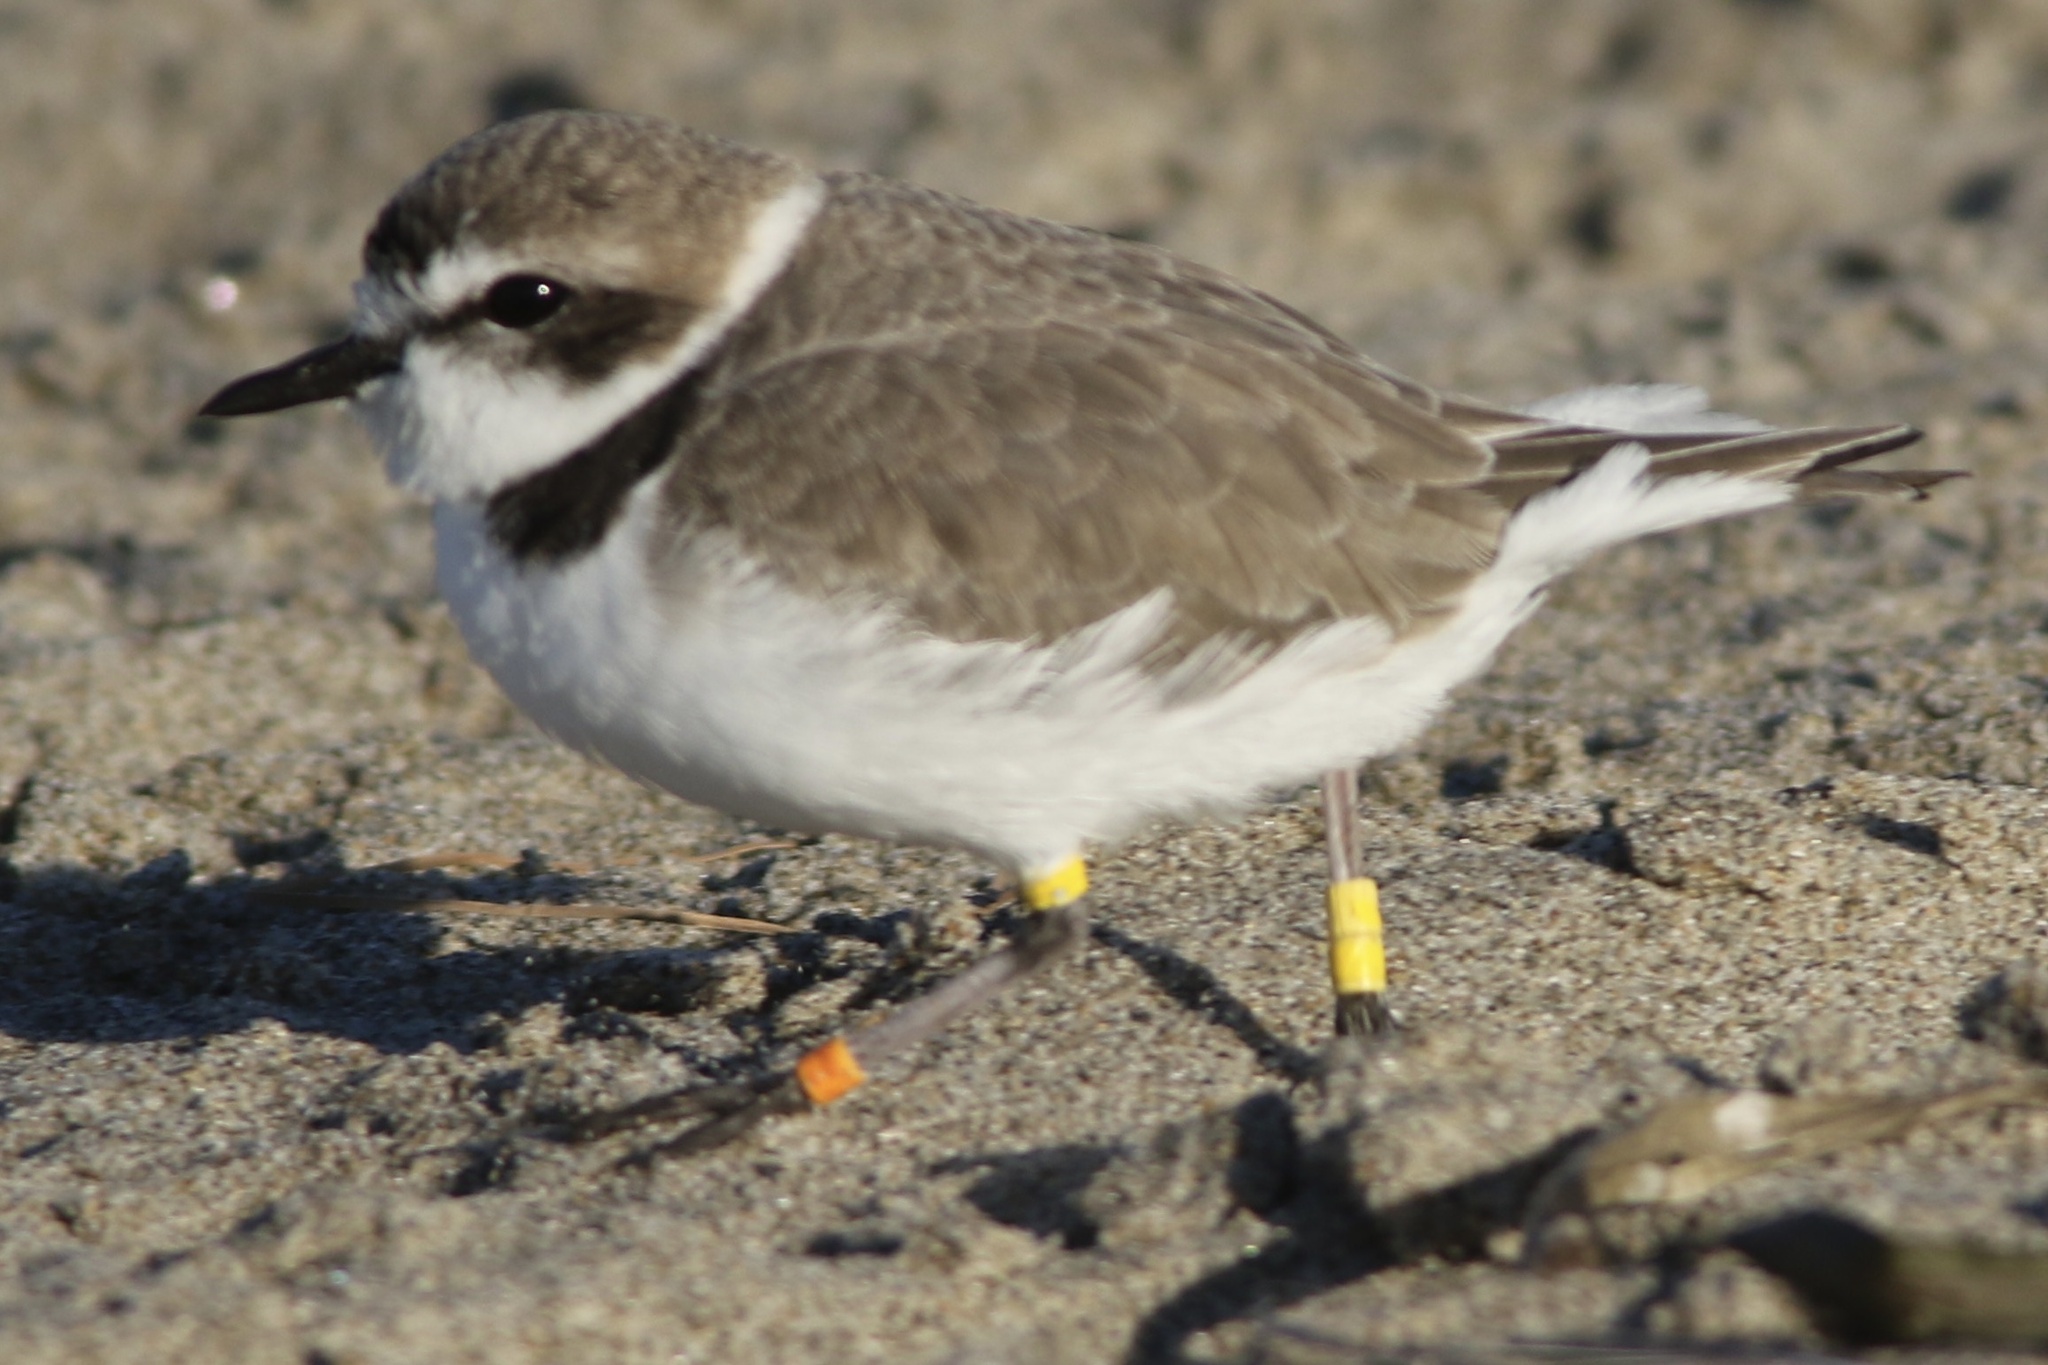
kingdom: Animalia
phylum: Chordata
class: Aves
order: Charadriiformes
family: Charadriidae
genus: Anarhynchus
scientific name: Anarhynchus
